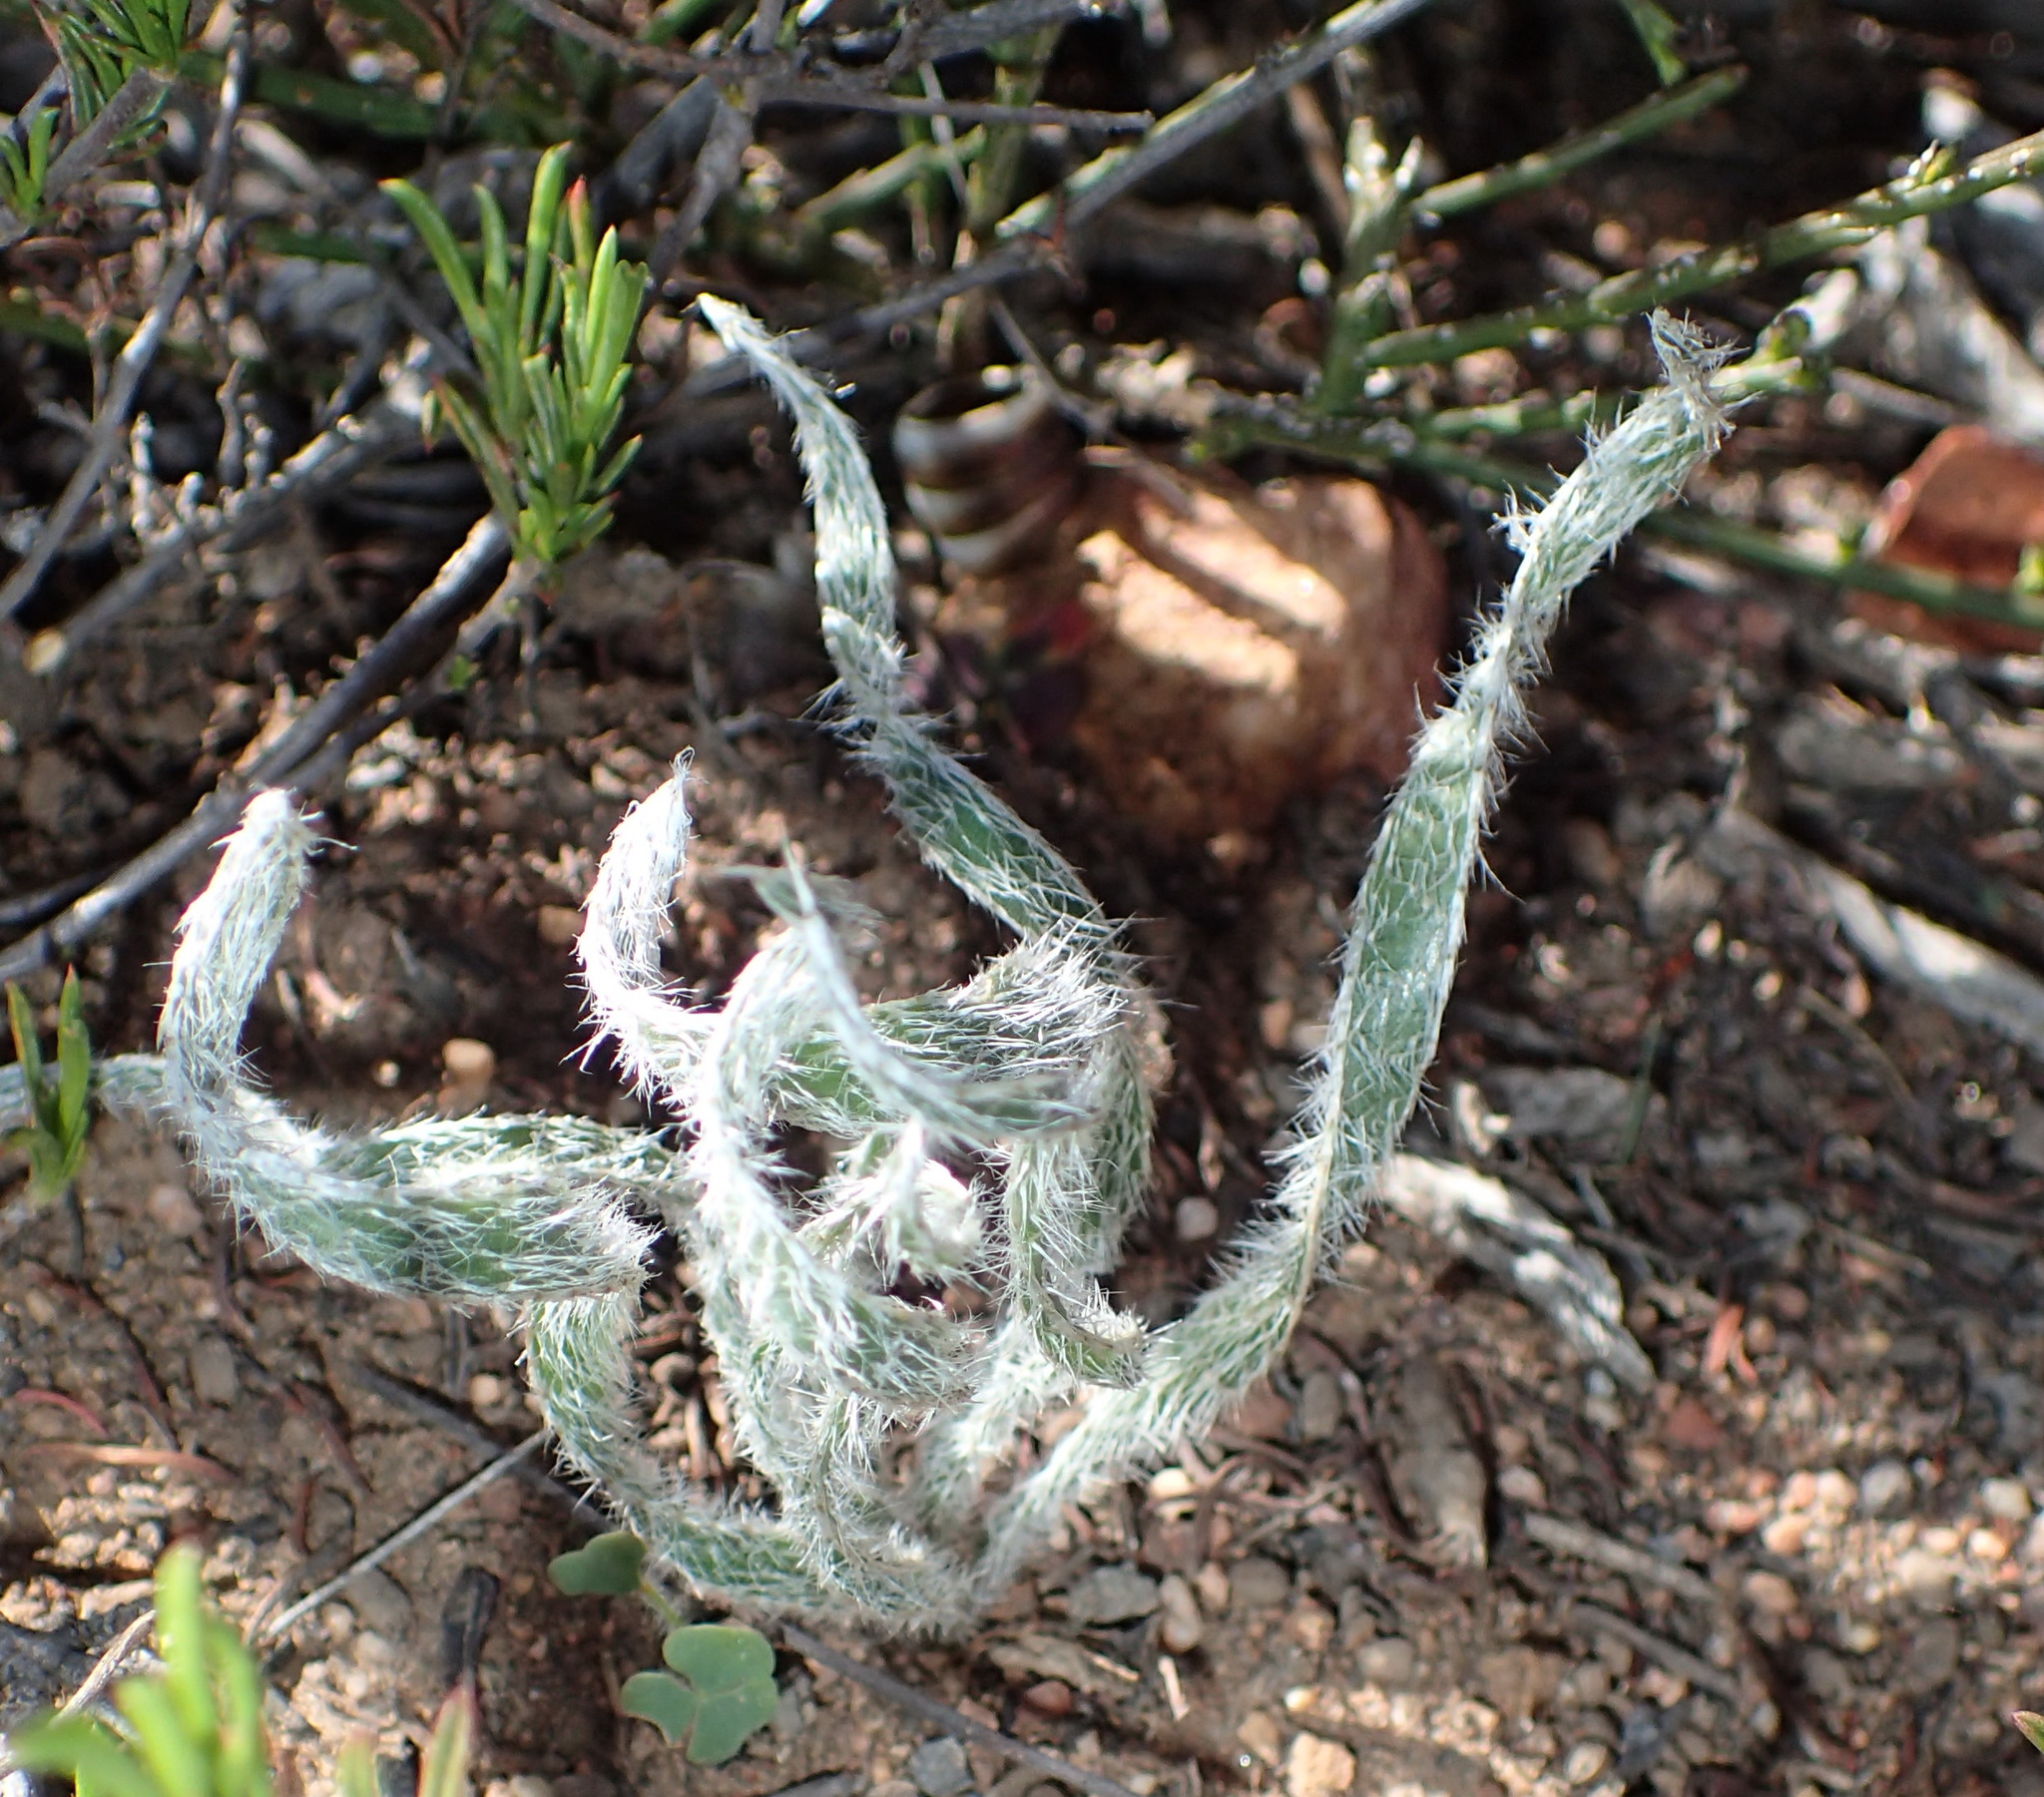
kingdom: Plantae
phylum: Tracheophyta
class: Liliopsida
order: Asparagales
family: Amaryllidaceae
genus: Gethyllis
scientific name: Gethyllis villosa
